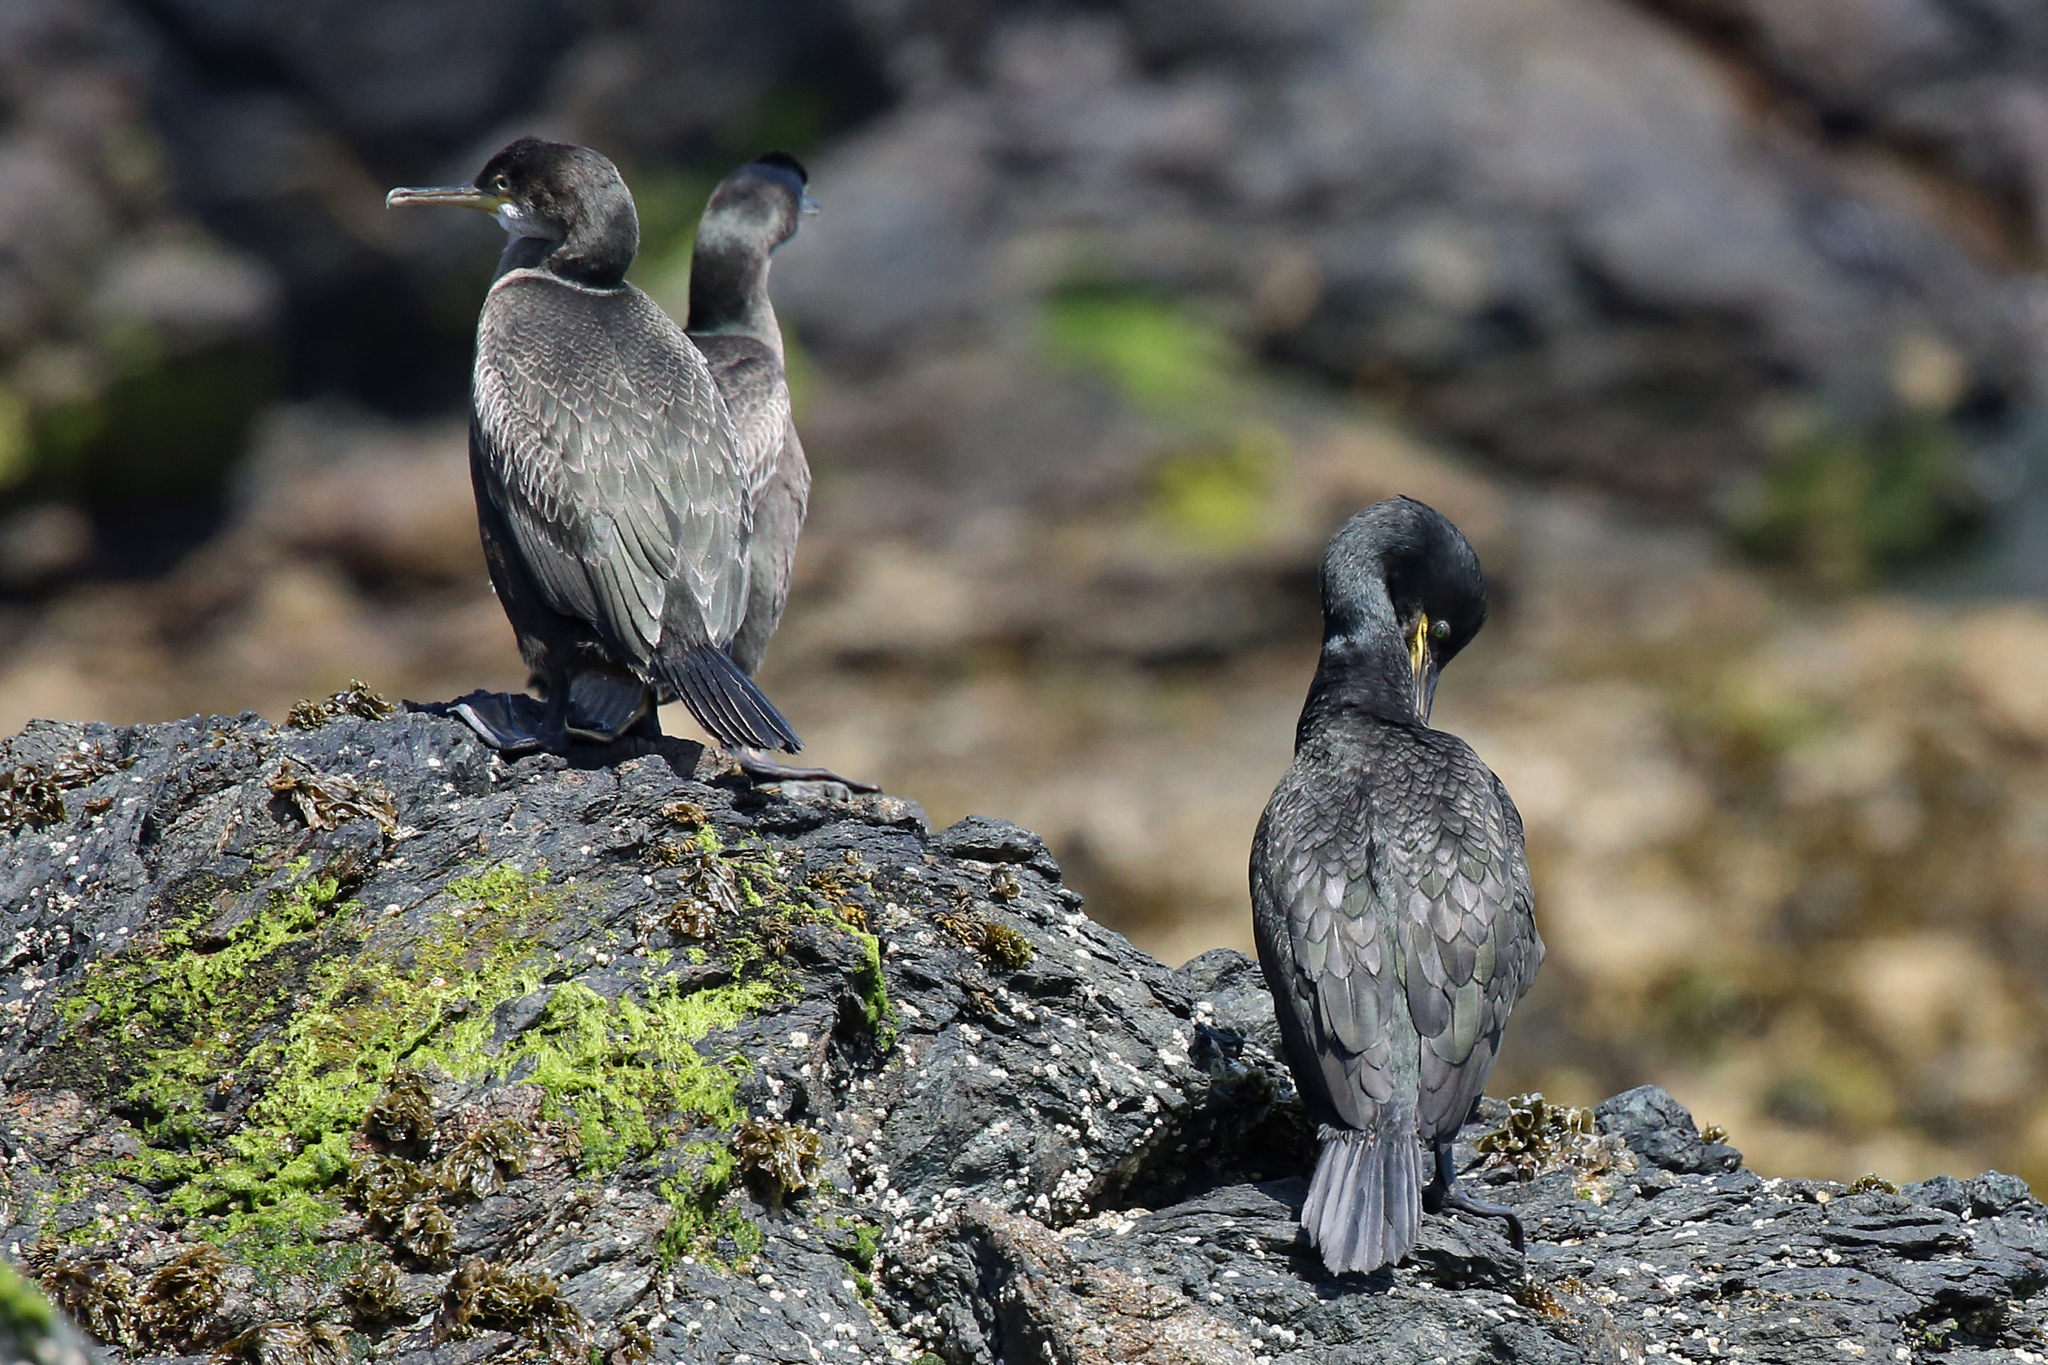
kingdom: Animalia
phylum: Chordata
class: Aves
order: Suliformes
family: Phalacrocoracidae
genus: Phalacrocorax
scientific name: Phalacrocorax aristotelis
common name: European shag
